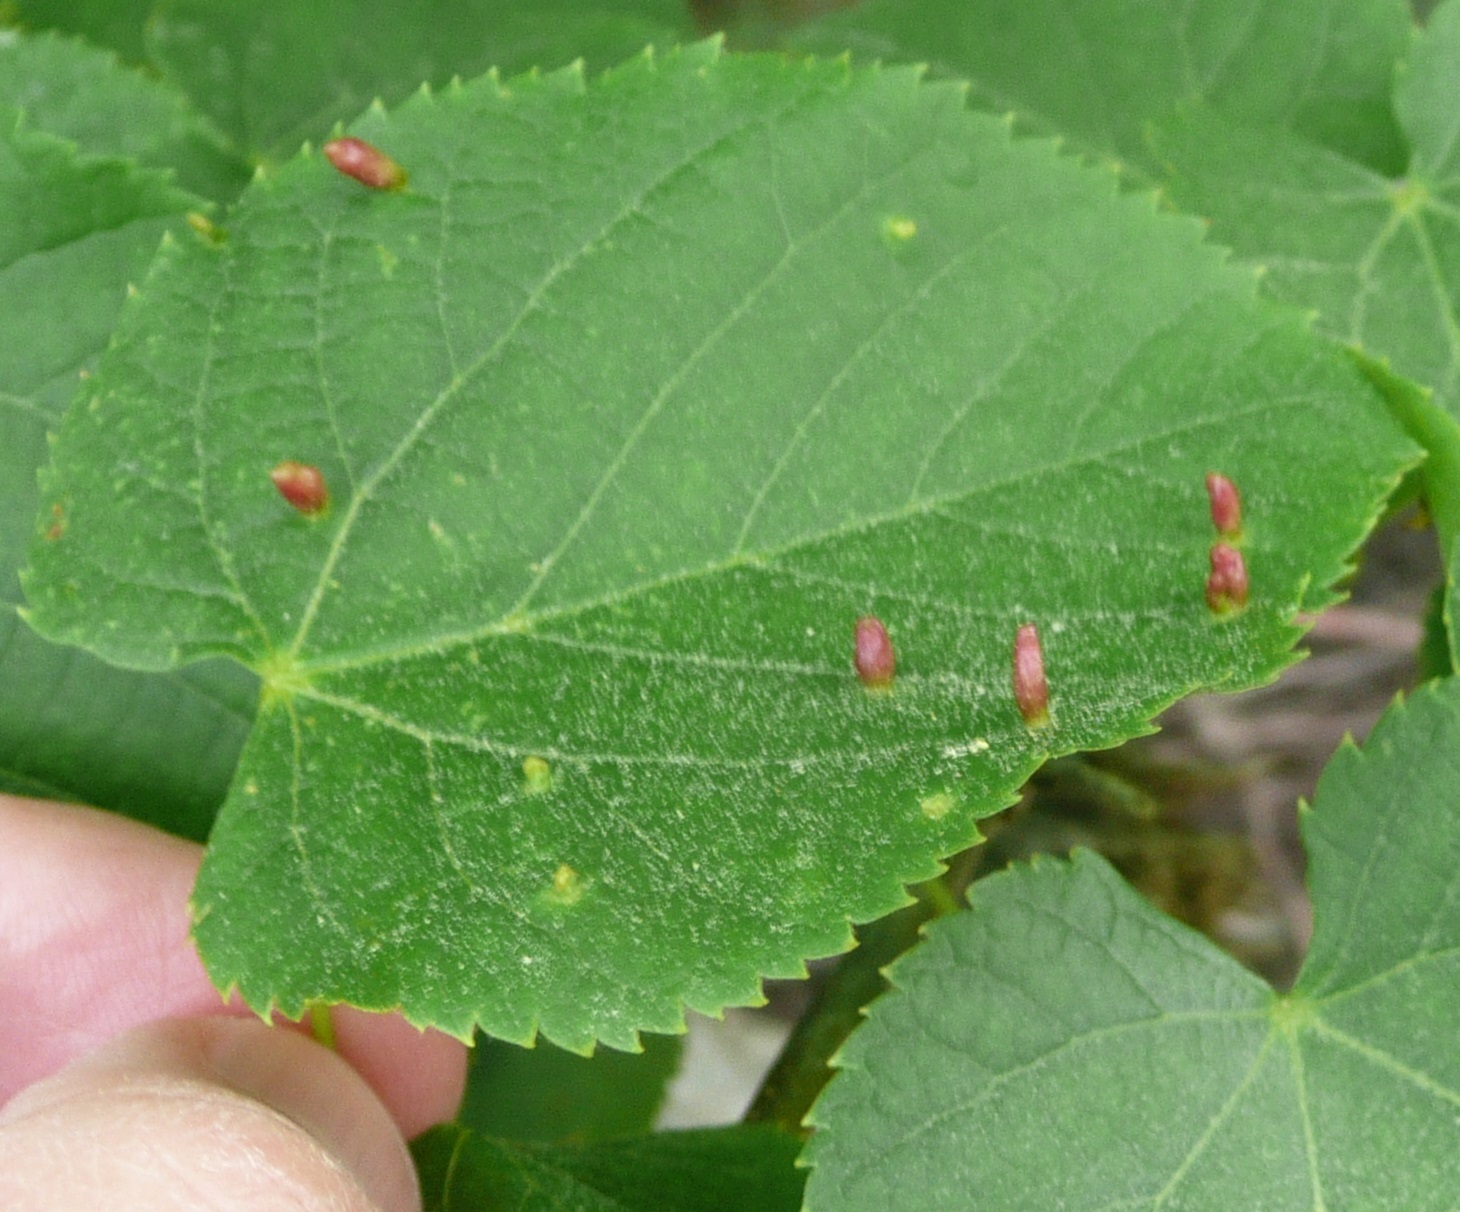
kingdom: Animalia
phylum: Arthropoda
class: Arachnida
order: Trombidiformes
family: Eriophyidae
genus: Eriophyes
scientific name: Eriophyes tiliae
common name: Red nail gall mite
